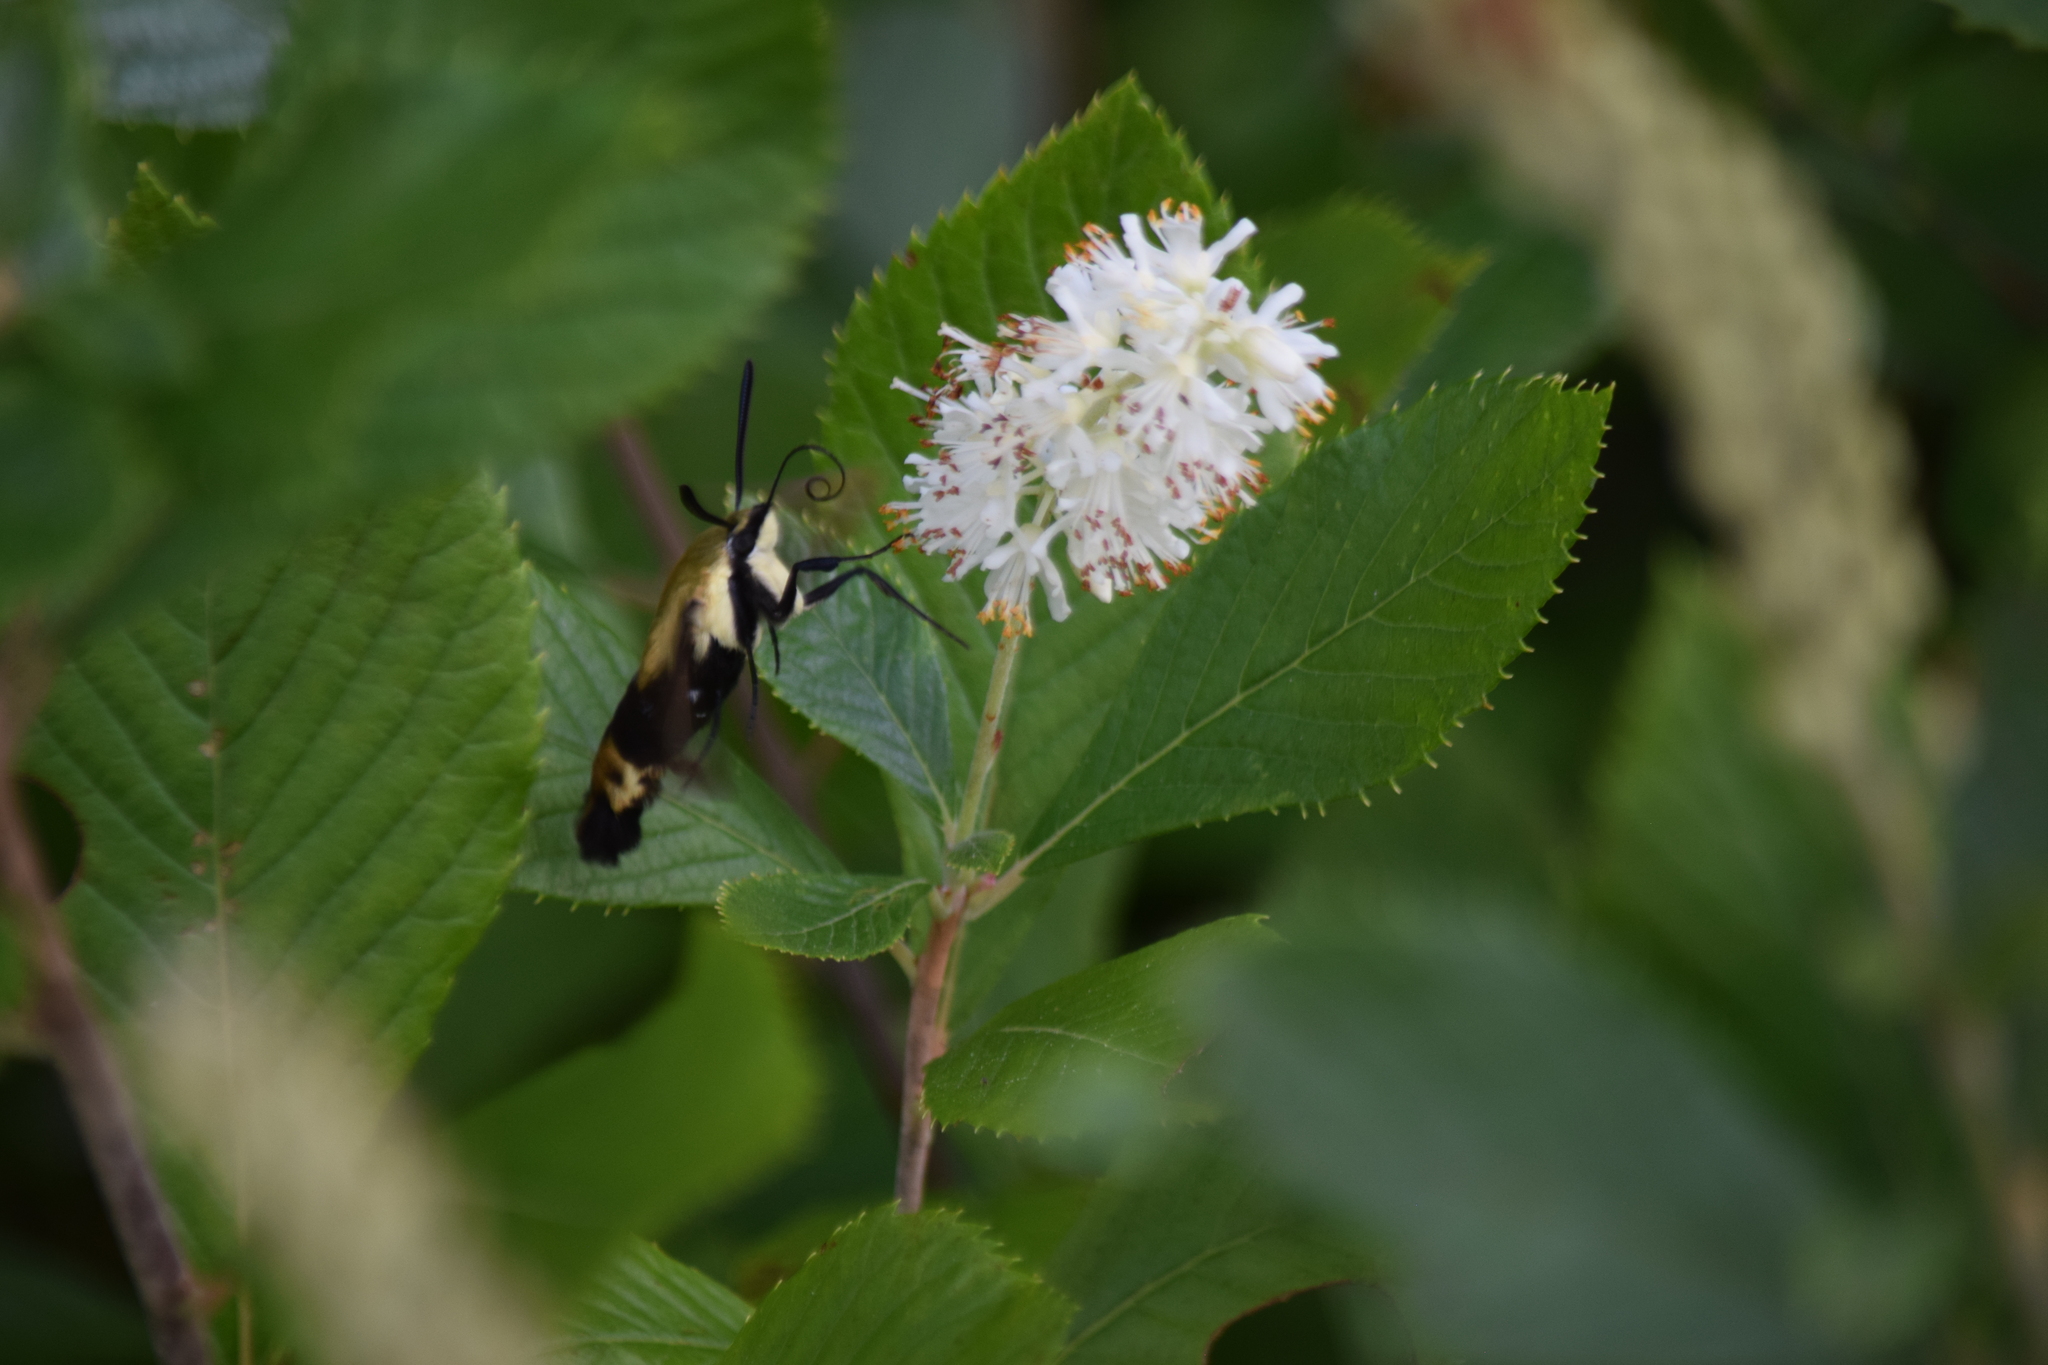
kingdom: Animalia
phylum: Arthropoda
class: Insecta
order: Lepidoptera
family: Sphingidae
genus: Hemaris
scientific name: Hemaris diffinis
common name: Bumblebee moth
